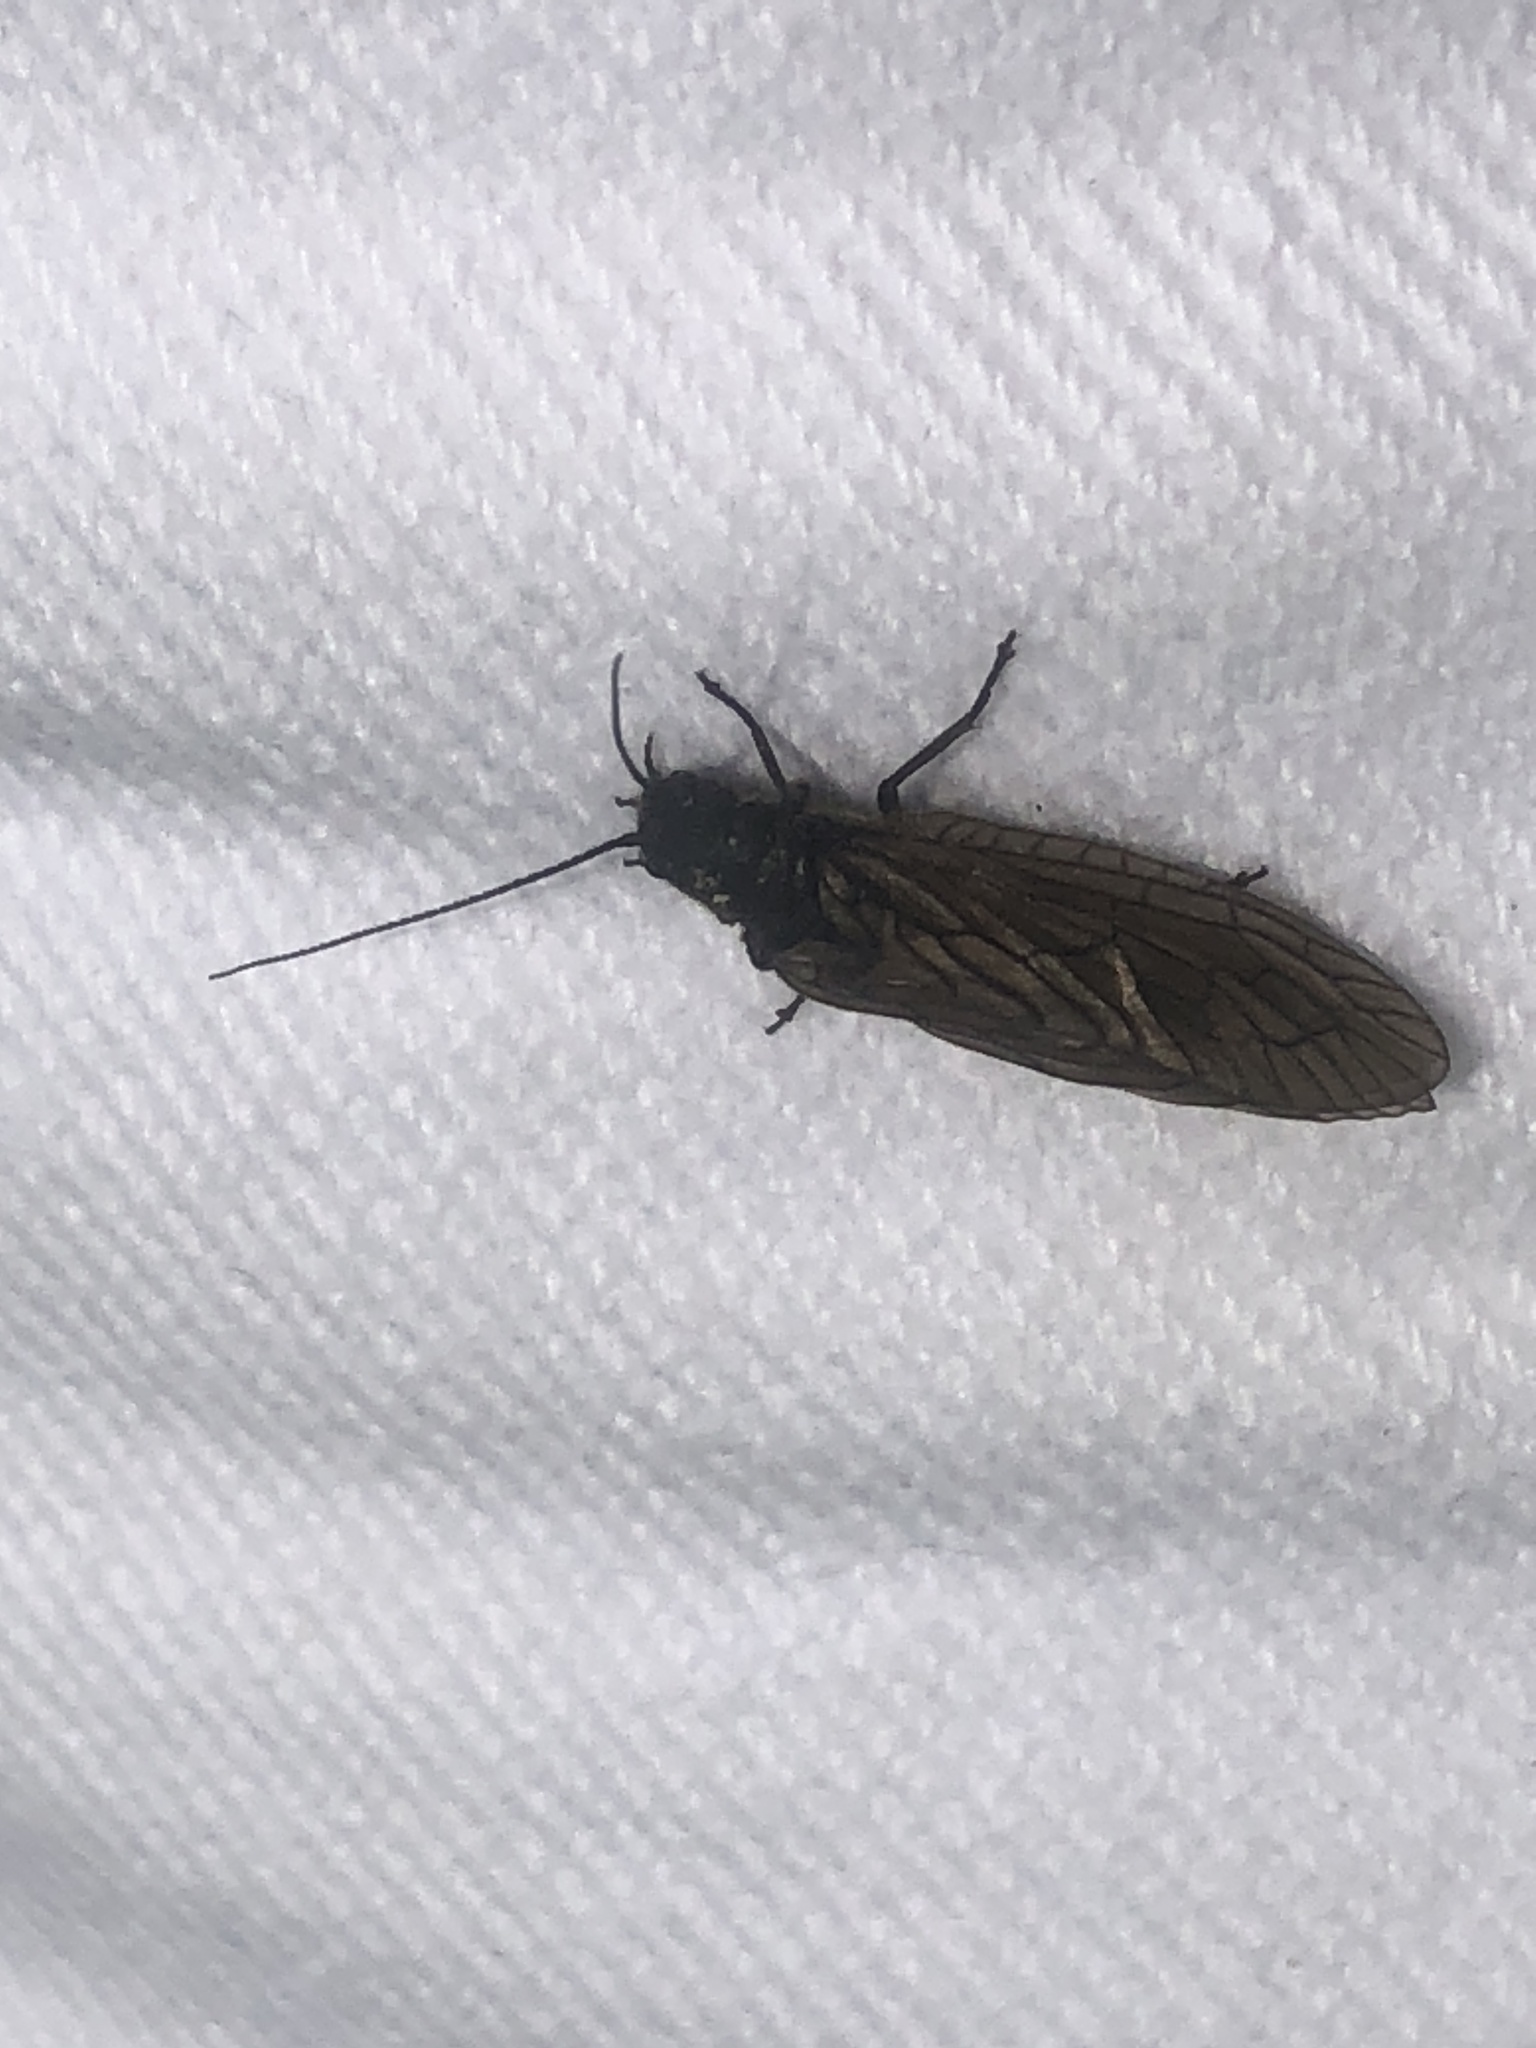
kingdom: Animalia
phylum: Arthropoda
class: Insecta
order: Megaloptera
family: Sialidae
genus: Sialis
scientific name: Sialis
